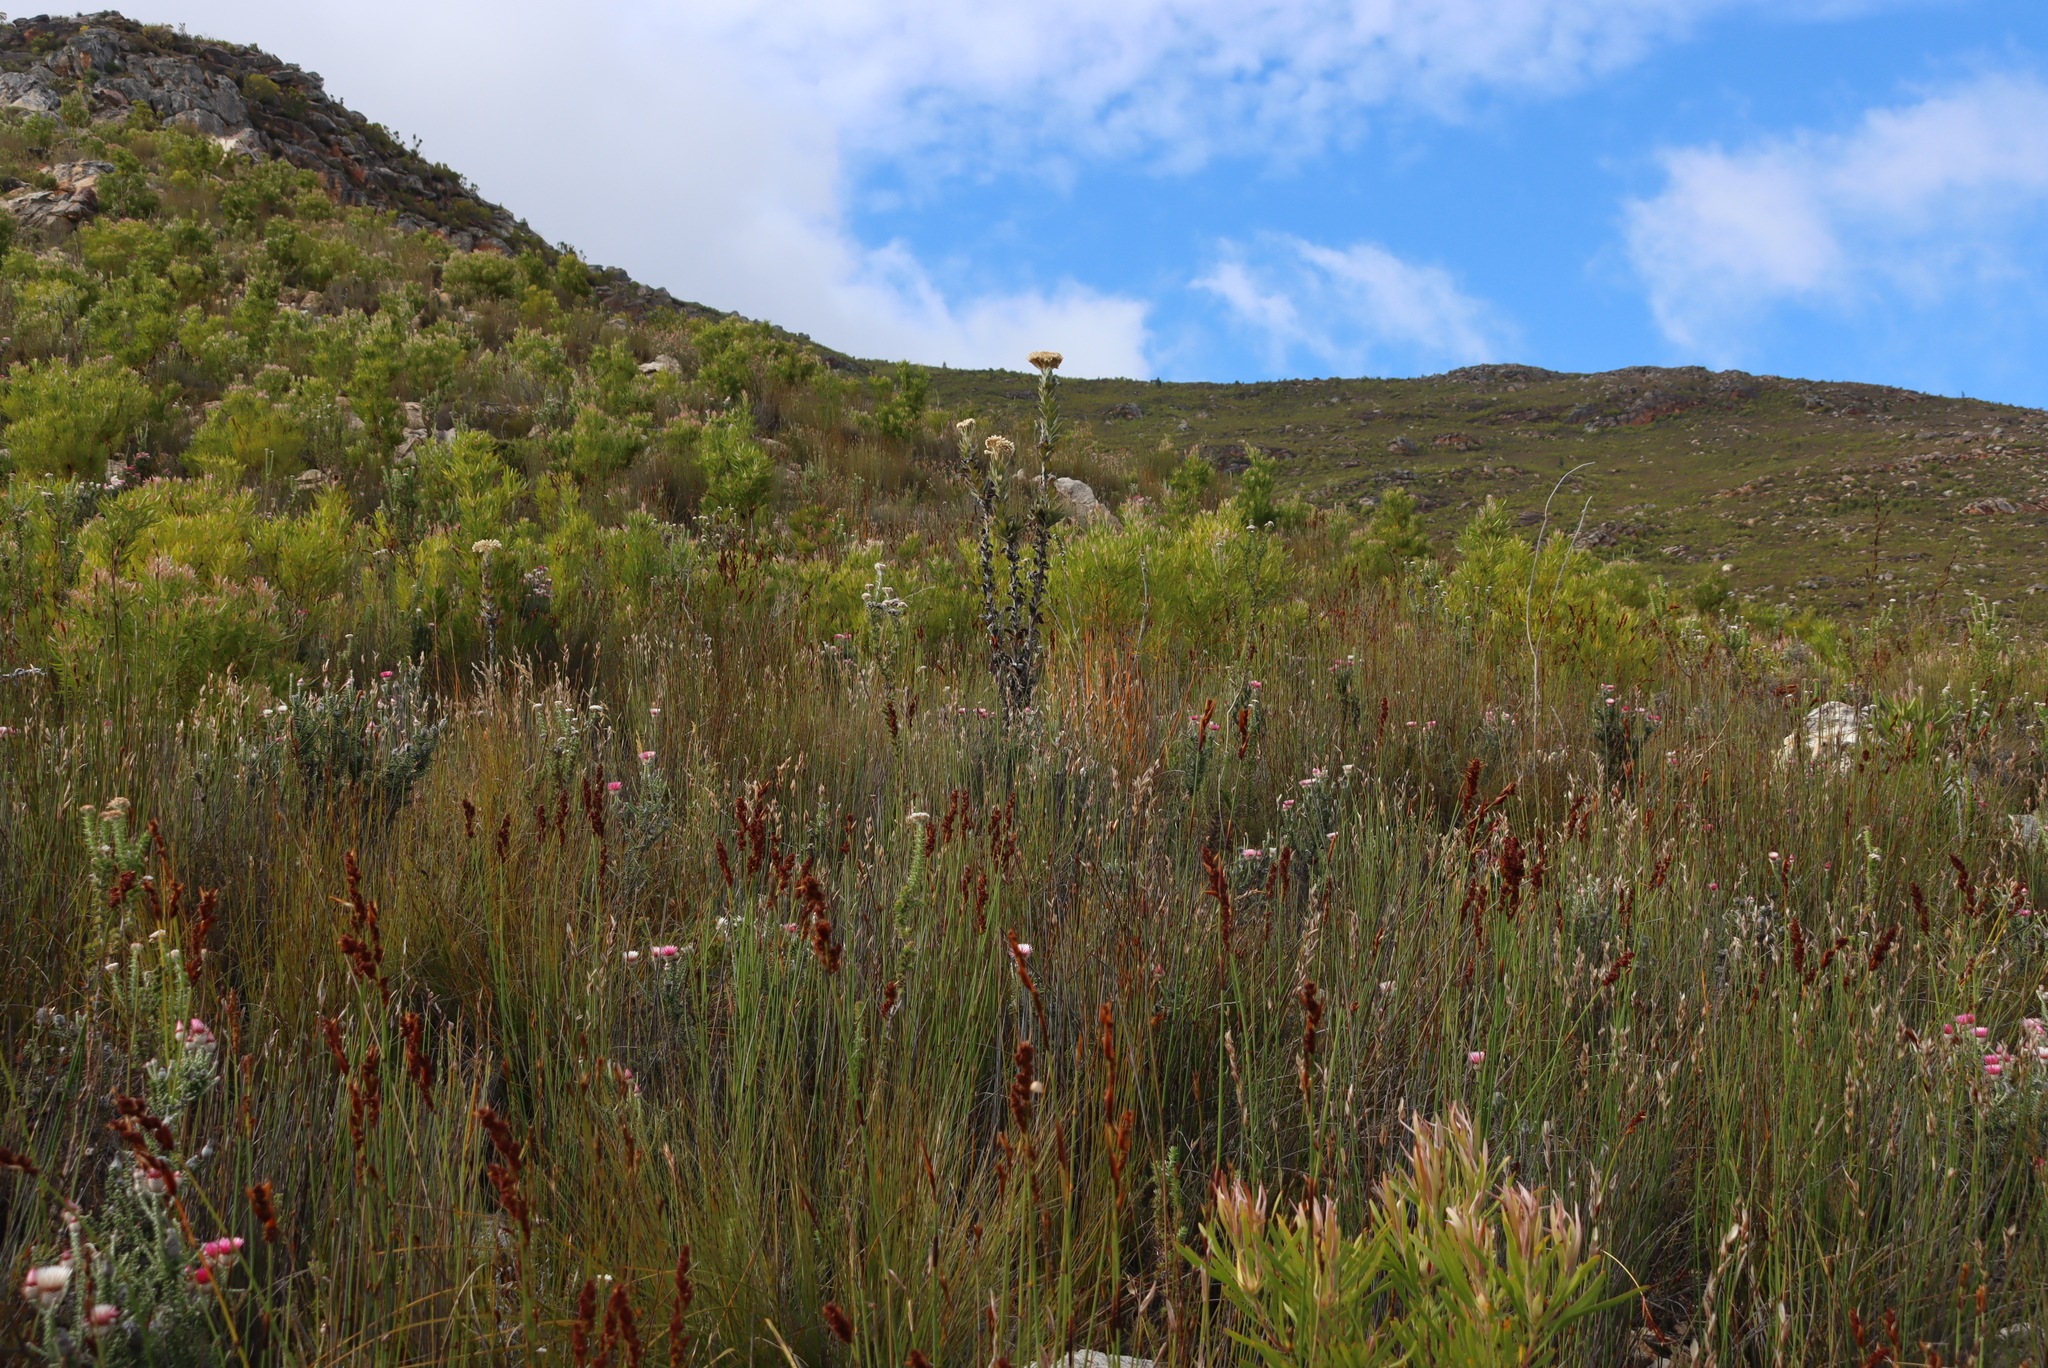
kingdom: Plantae
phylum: Tracheophyta
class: Magnoliopsida
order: Asterales
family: Asteraceae
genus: Syncarpha
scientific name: Syncarpha milleflora
